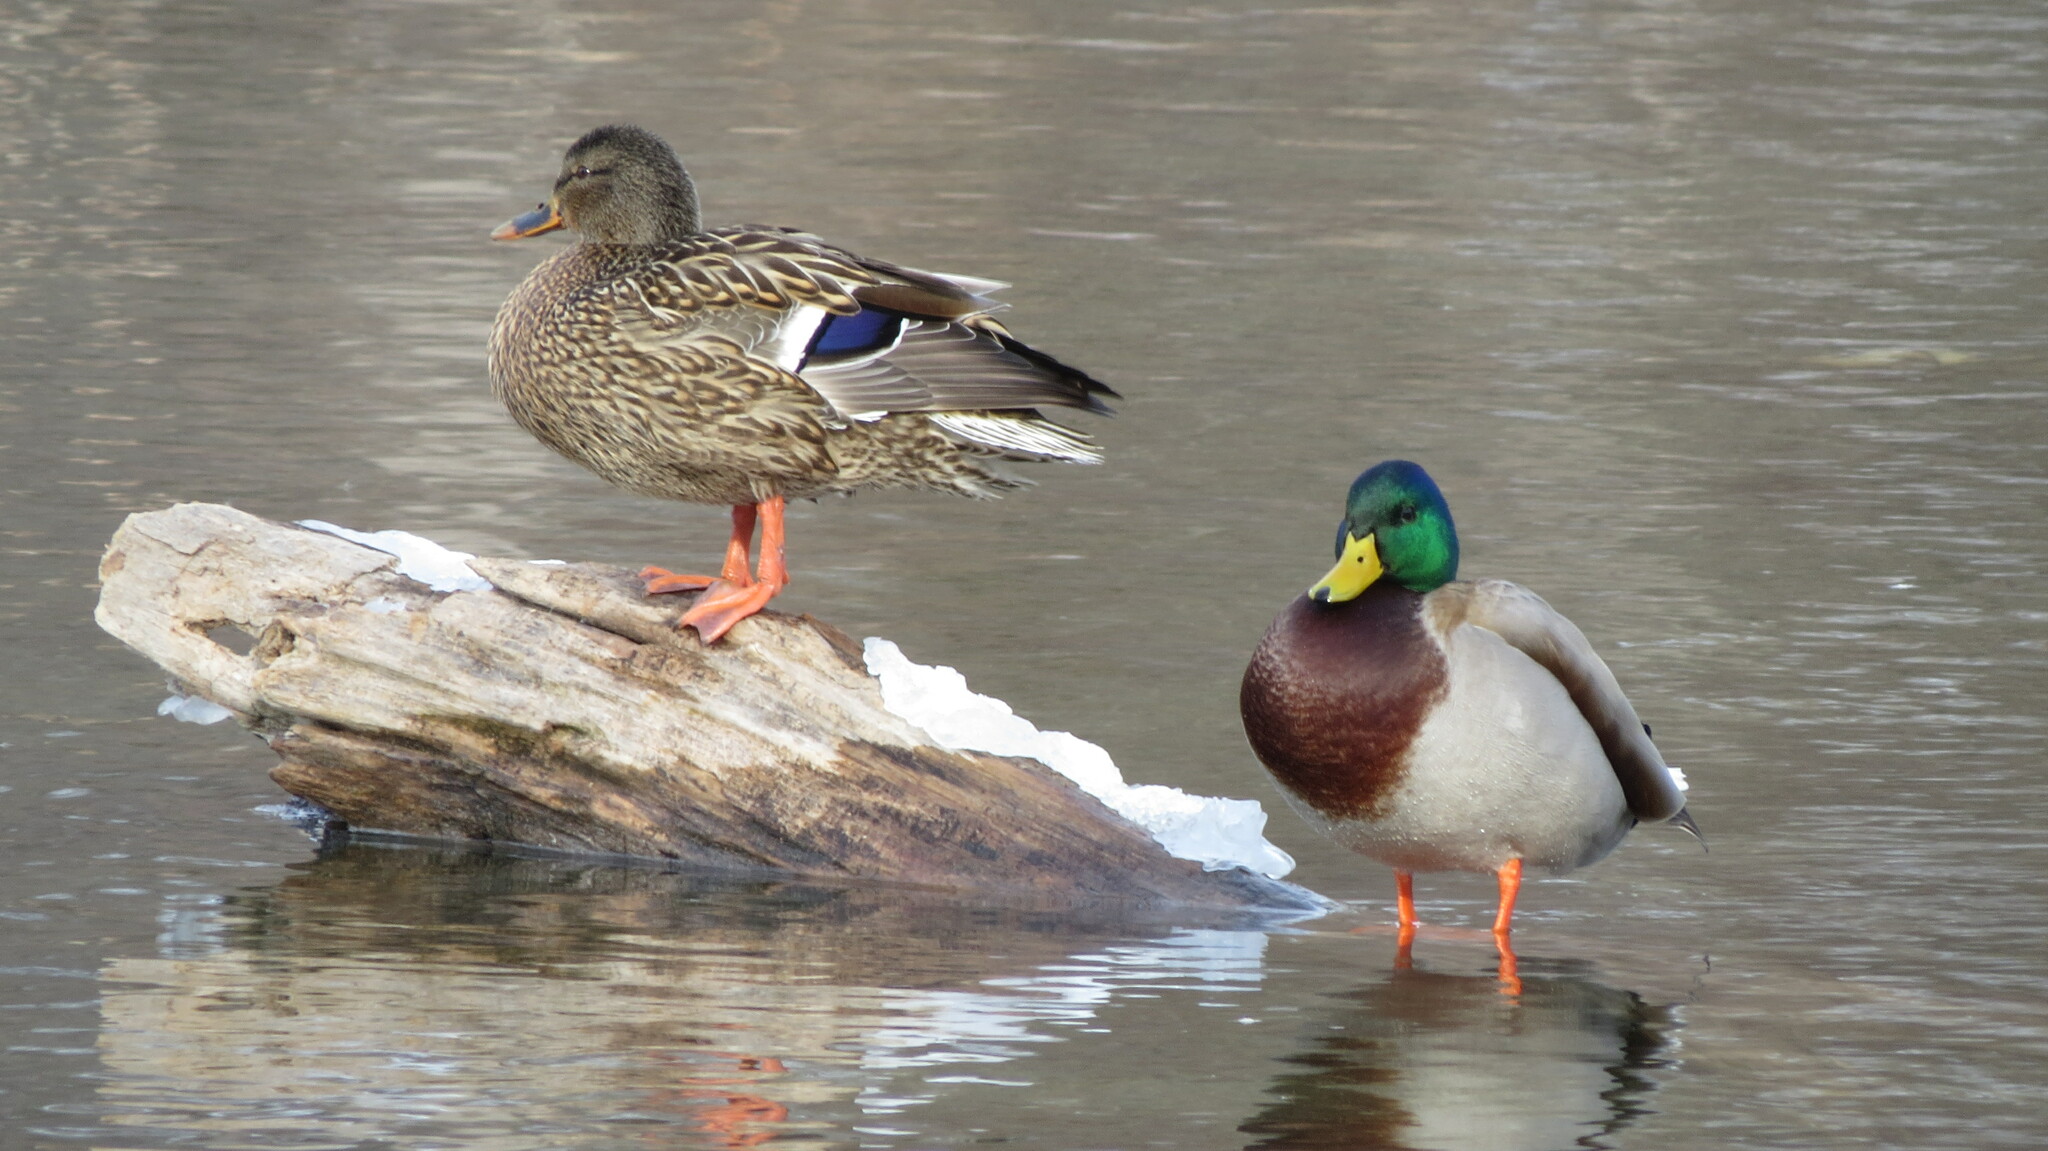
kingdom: Animalia
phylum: Chordata
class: Aves
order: Anseriformes
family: Anatidae
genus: Anas
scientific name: Anas platyrhynchos
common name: Mallard
